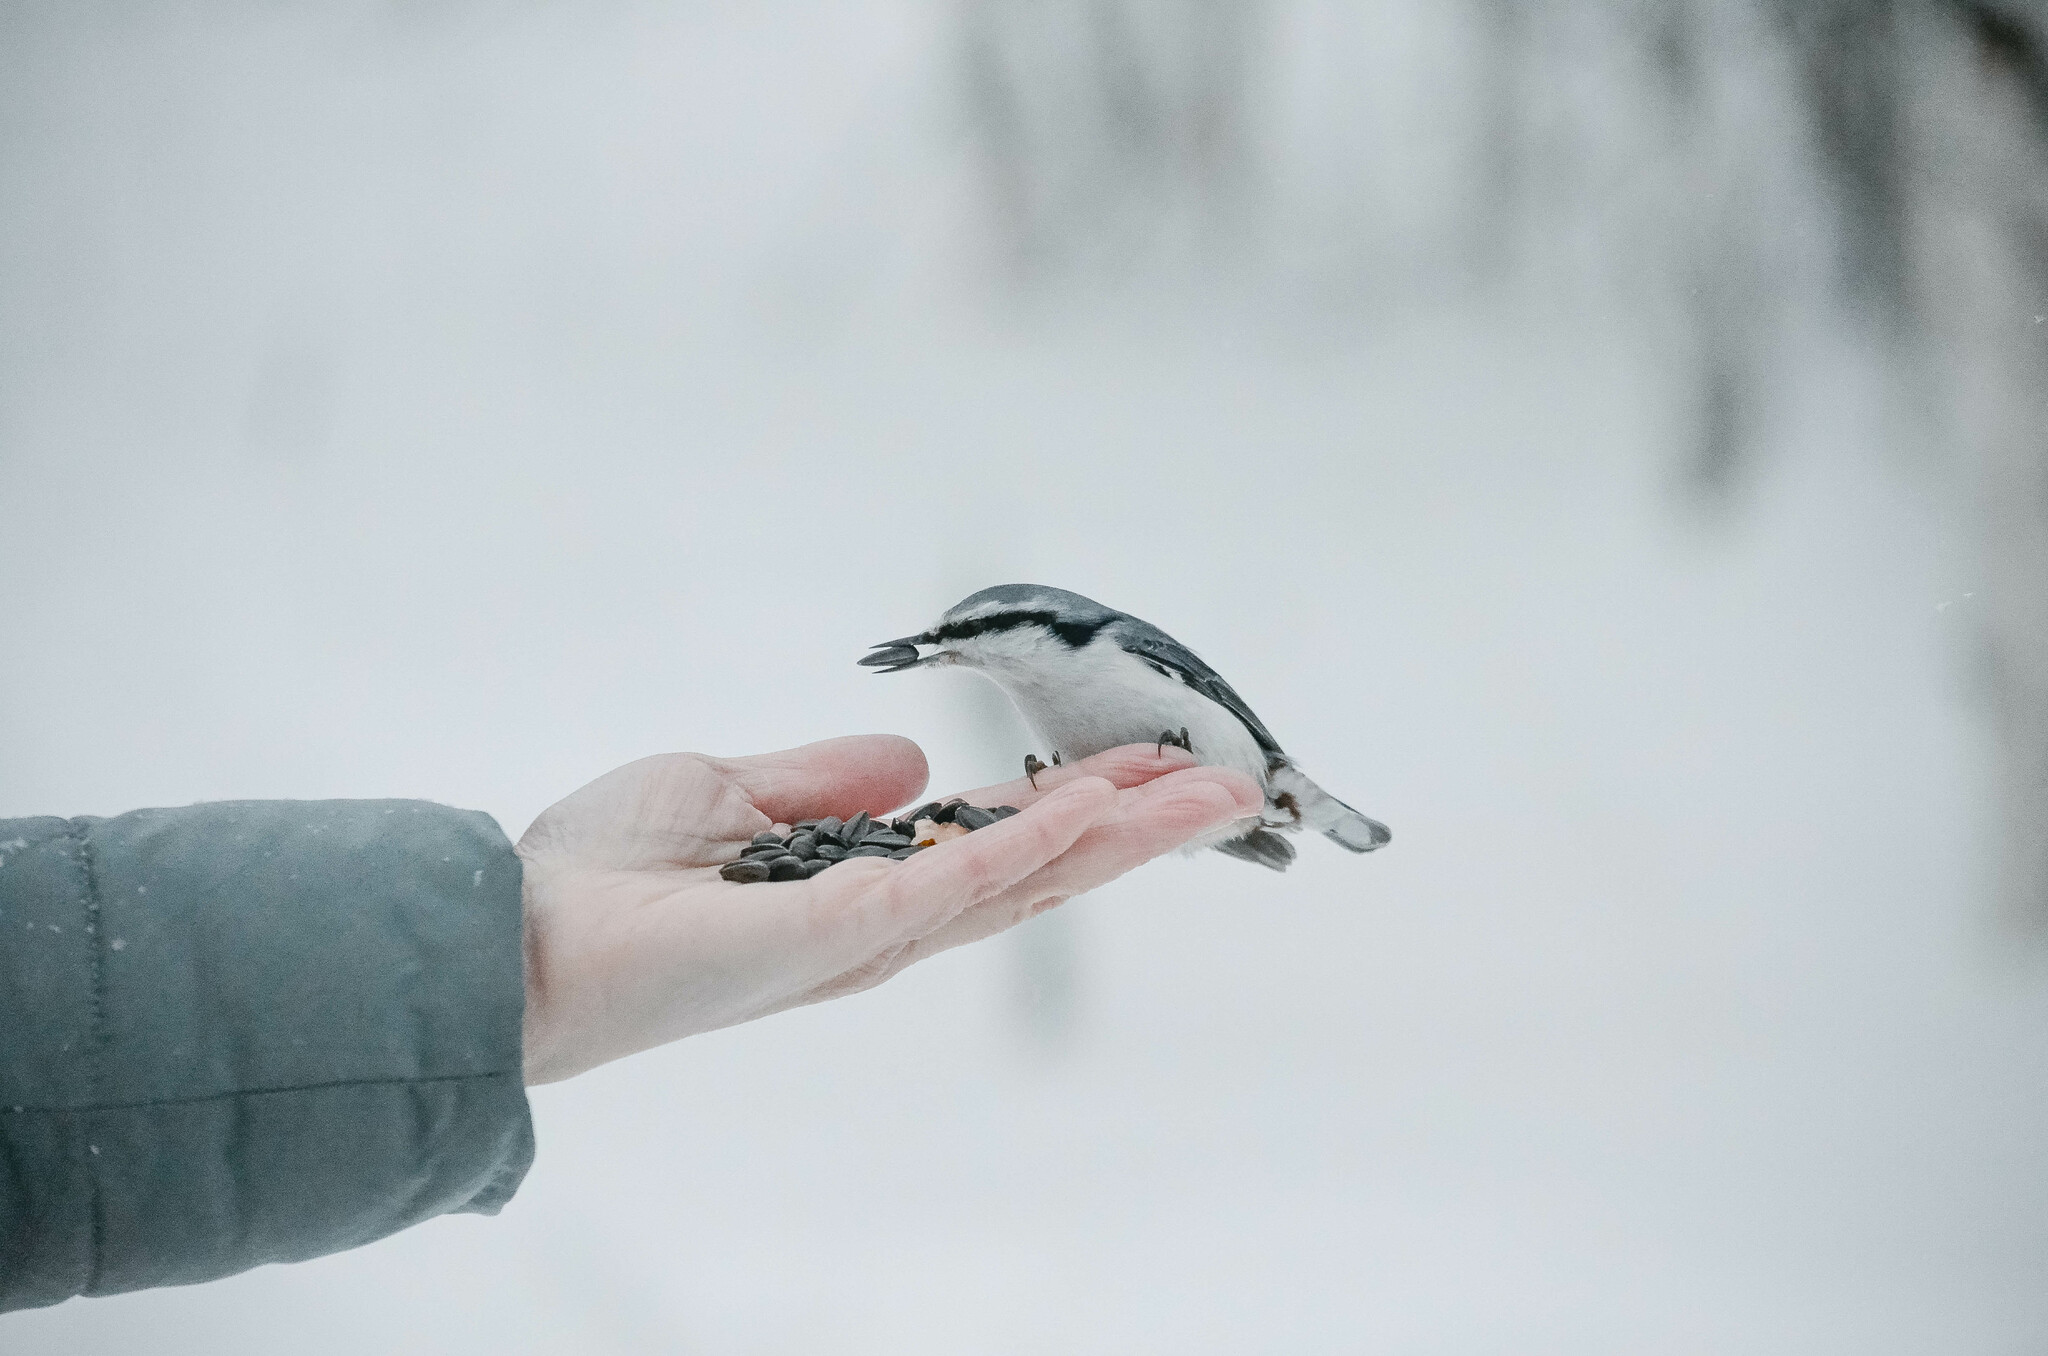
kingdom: Animalia
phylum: Chordata
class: Aves
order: Passeriformes
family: Sittidae
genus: Sitta
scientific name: Sitta europaea
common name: Eurasian nuthatch
